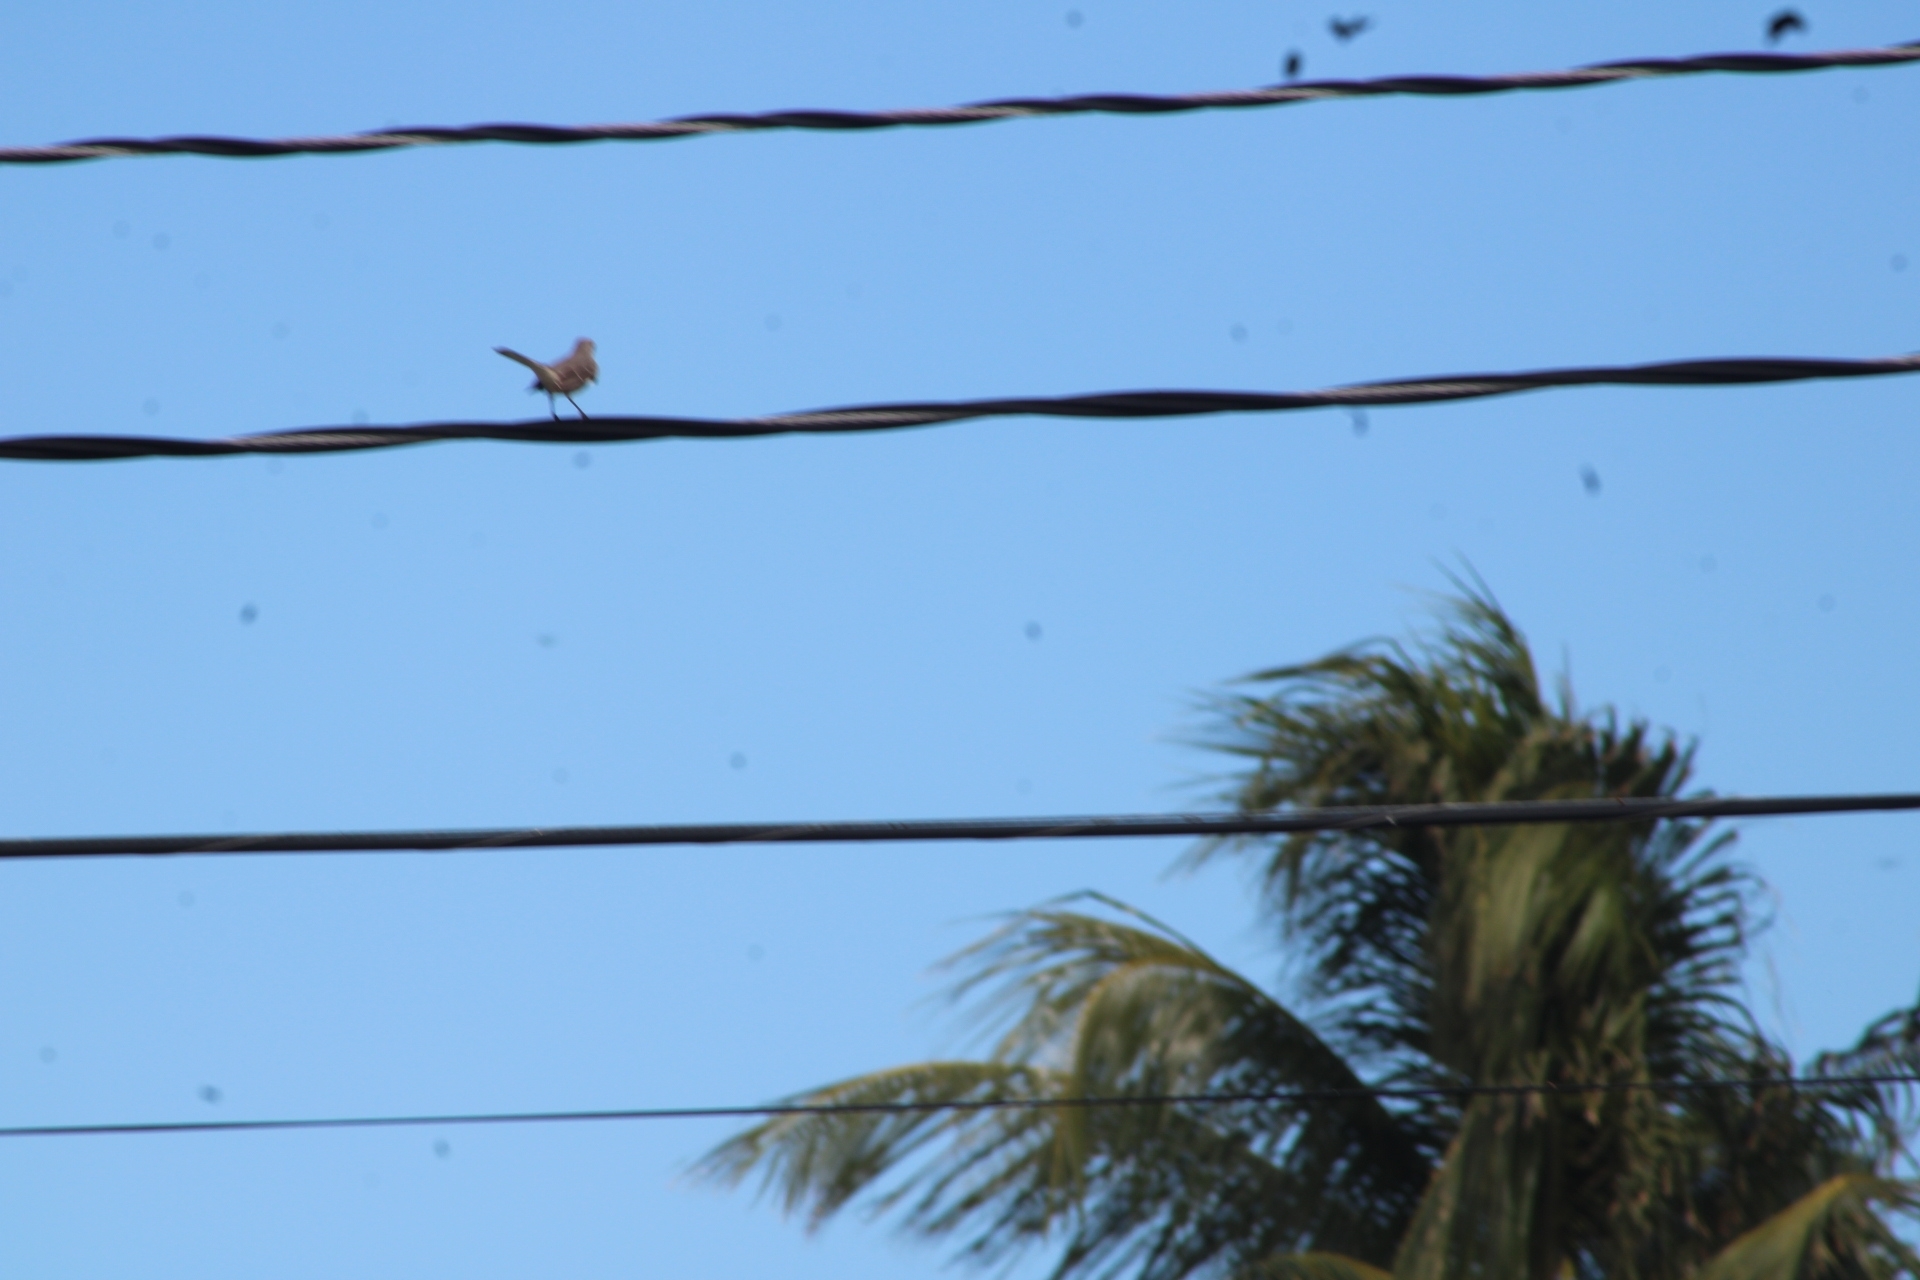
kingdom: Animalia
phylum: Chordata
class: Aves
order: Passeriformes
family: Mimidae
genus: Mimus
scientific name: Mimus polyglottos
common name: Northern mockingbird
